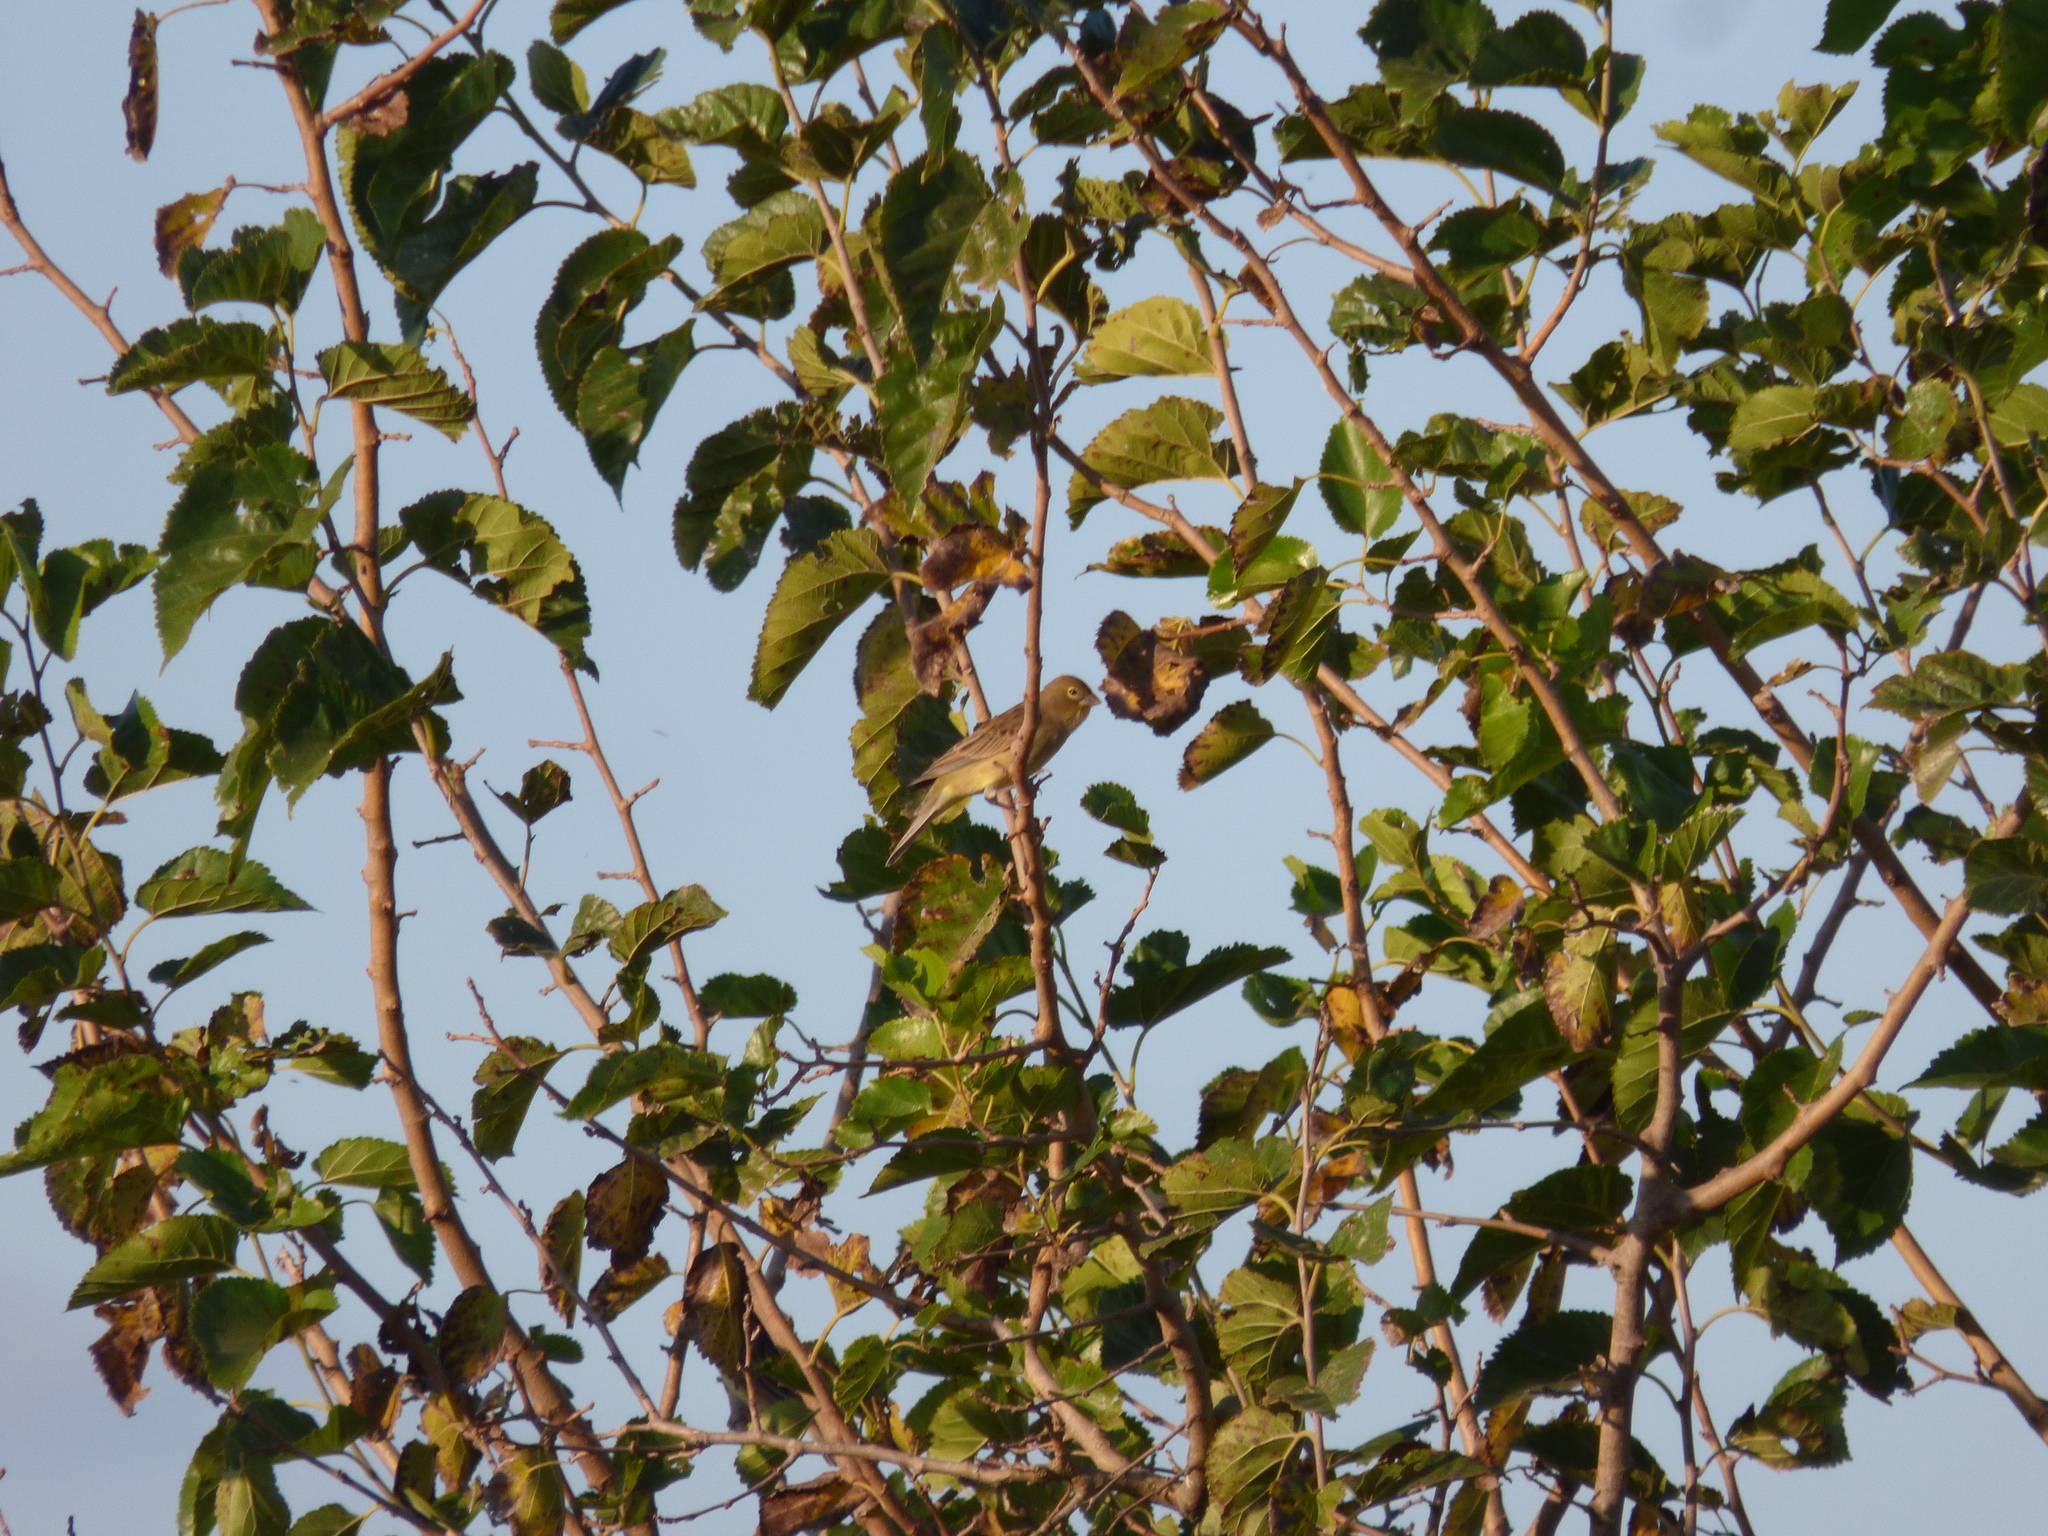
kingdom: Animalia
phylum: Chordata
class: Aves
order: Passeriformes
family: Thraupidae
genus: Sicalis
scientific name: Sicalis luteola
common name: Grassland yellow-finch
